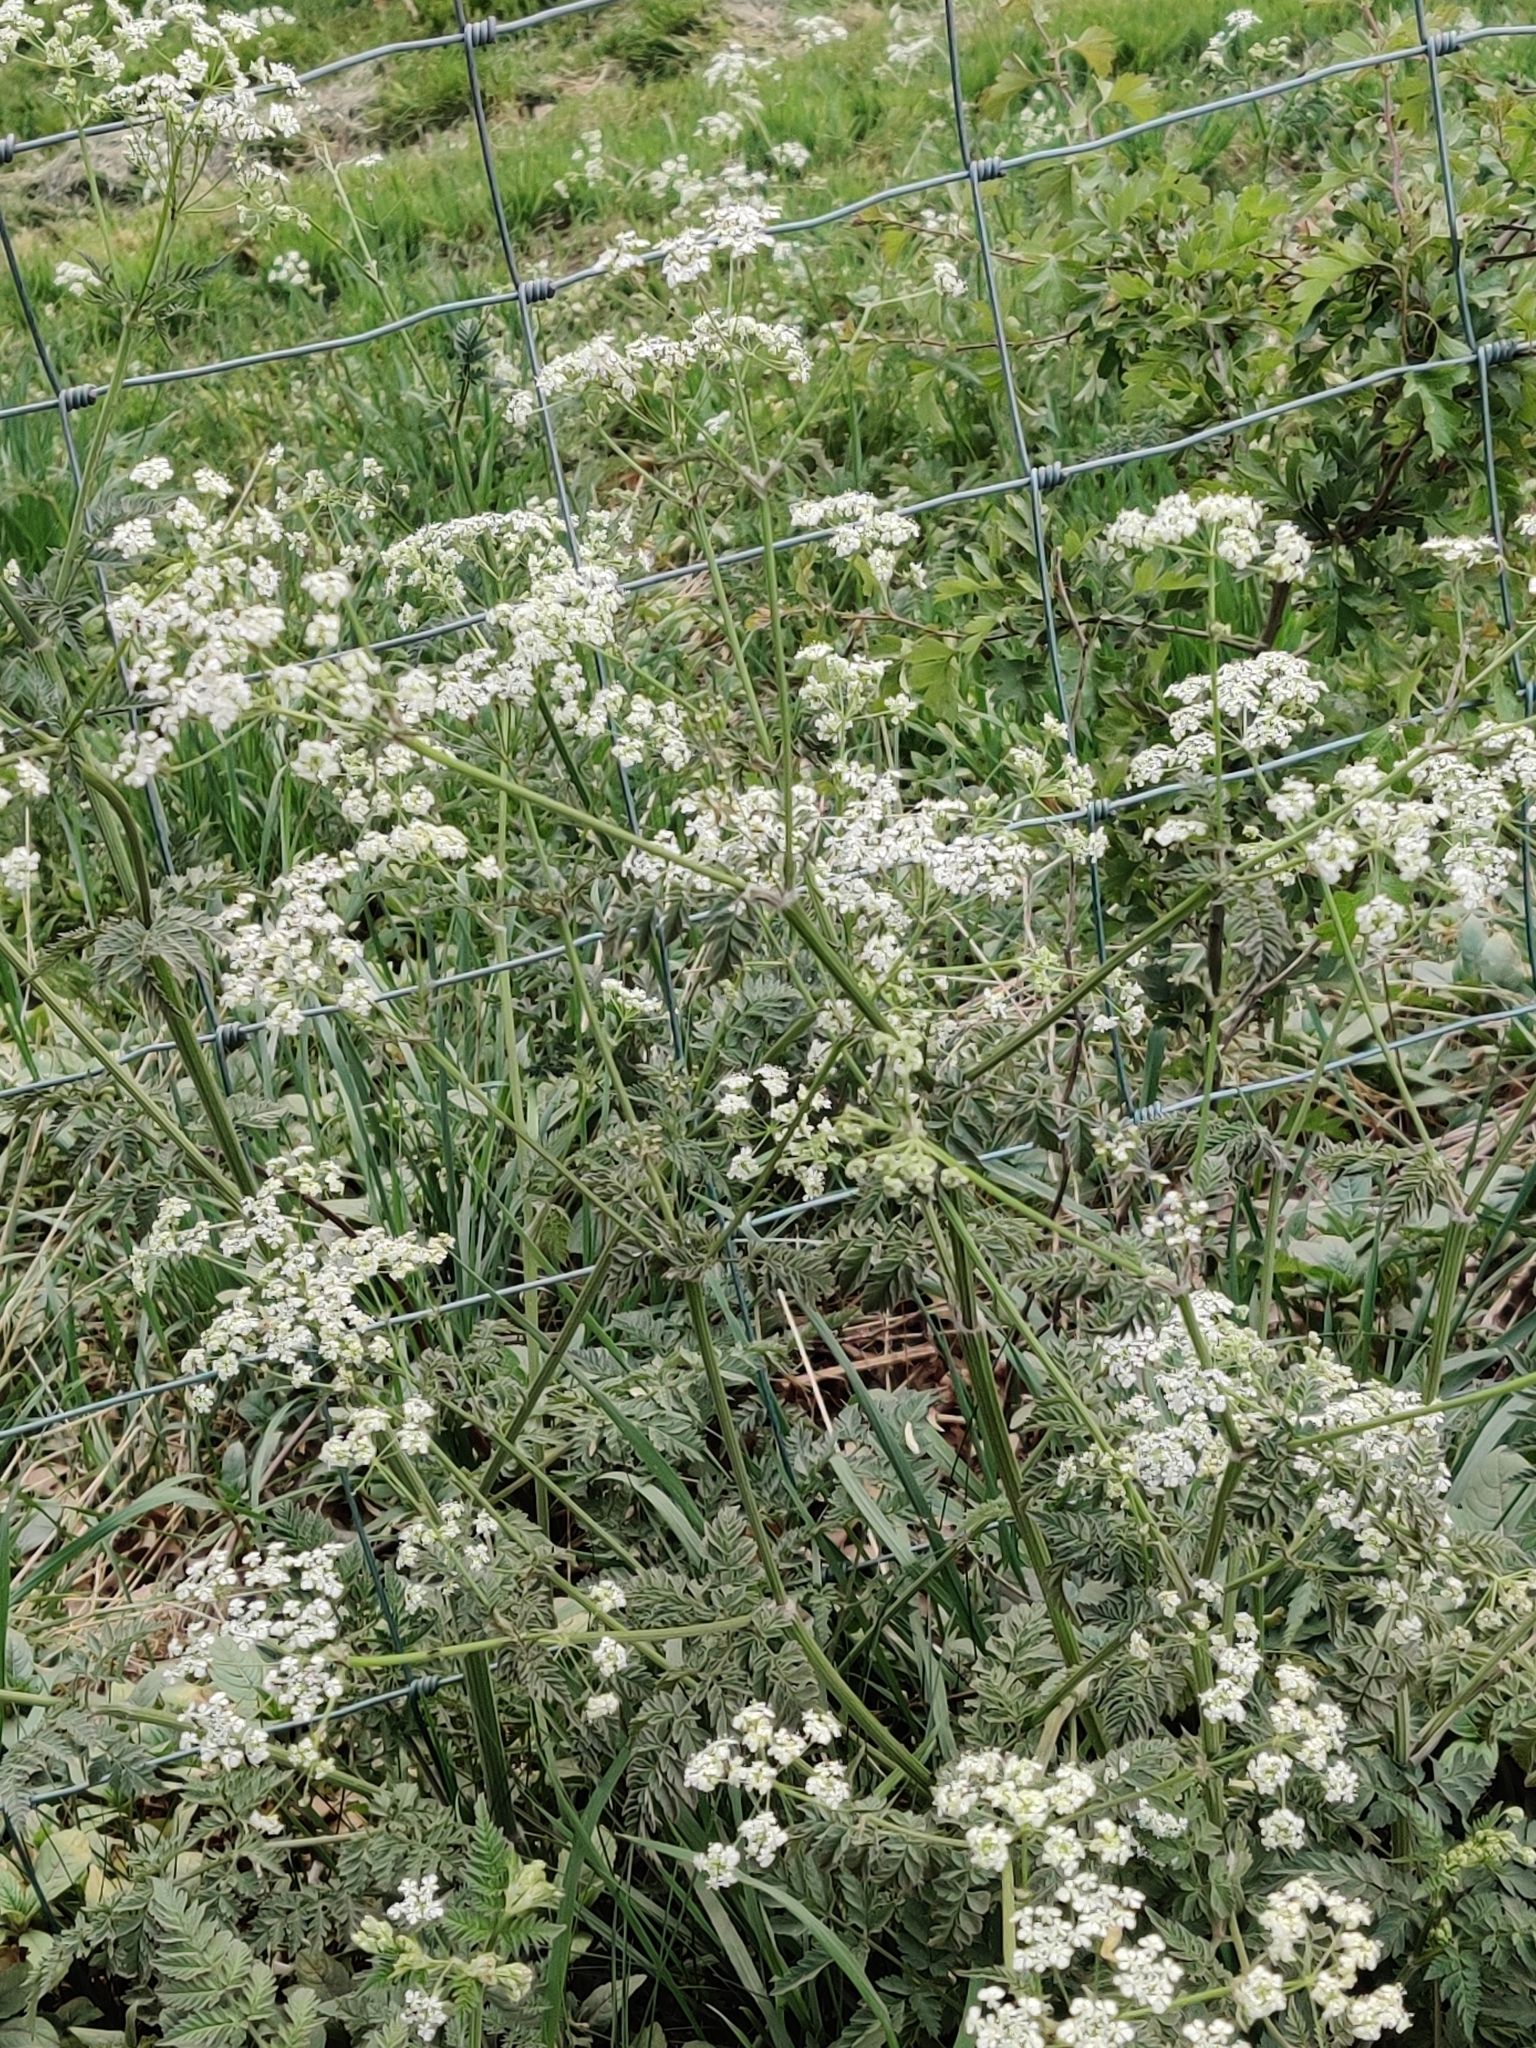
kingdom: Plantae
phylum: Tracheophyta
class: Magnoliopsida
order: Apiales
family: Apiaceae
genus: Anthriscus
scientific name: Anthriscus sylvestris
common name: Cow parsley
